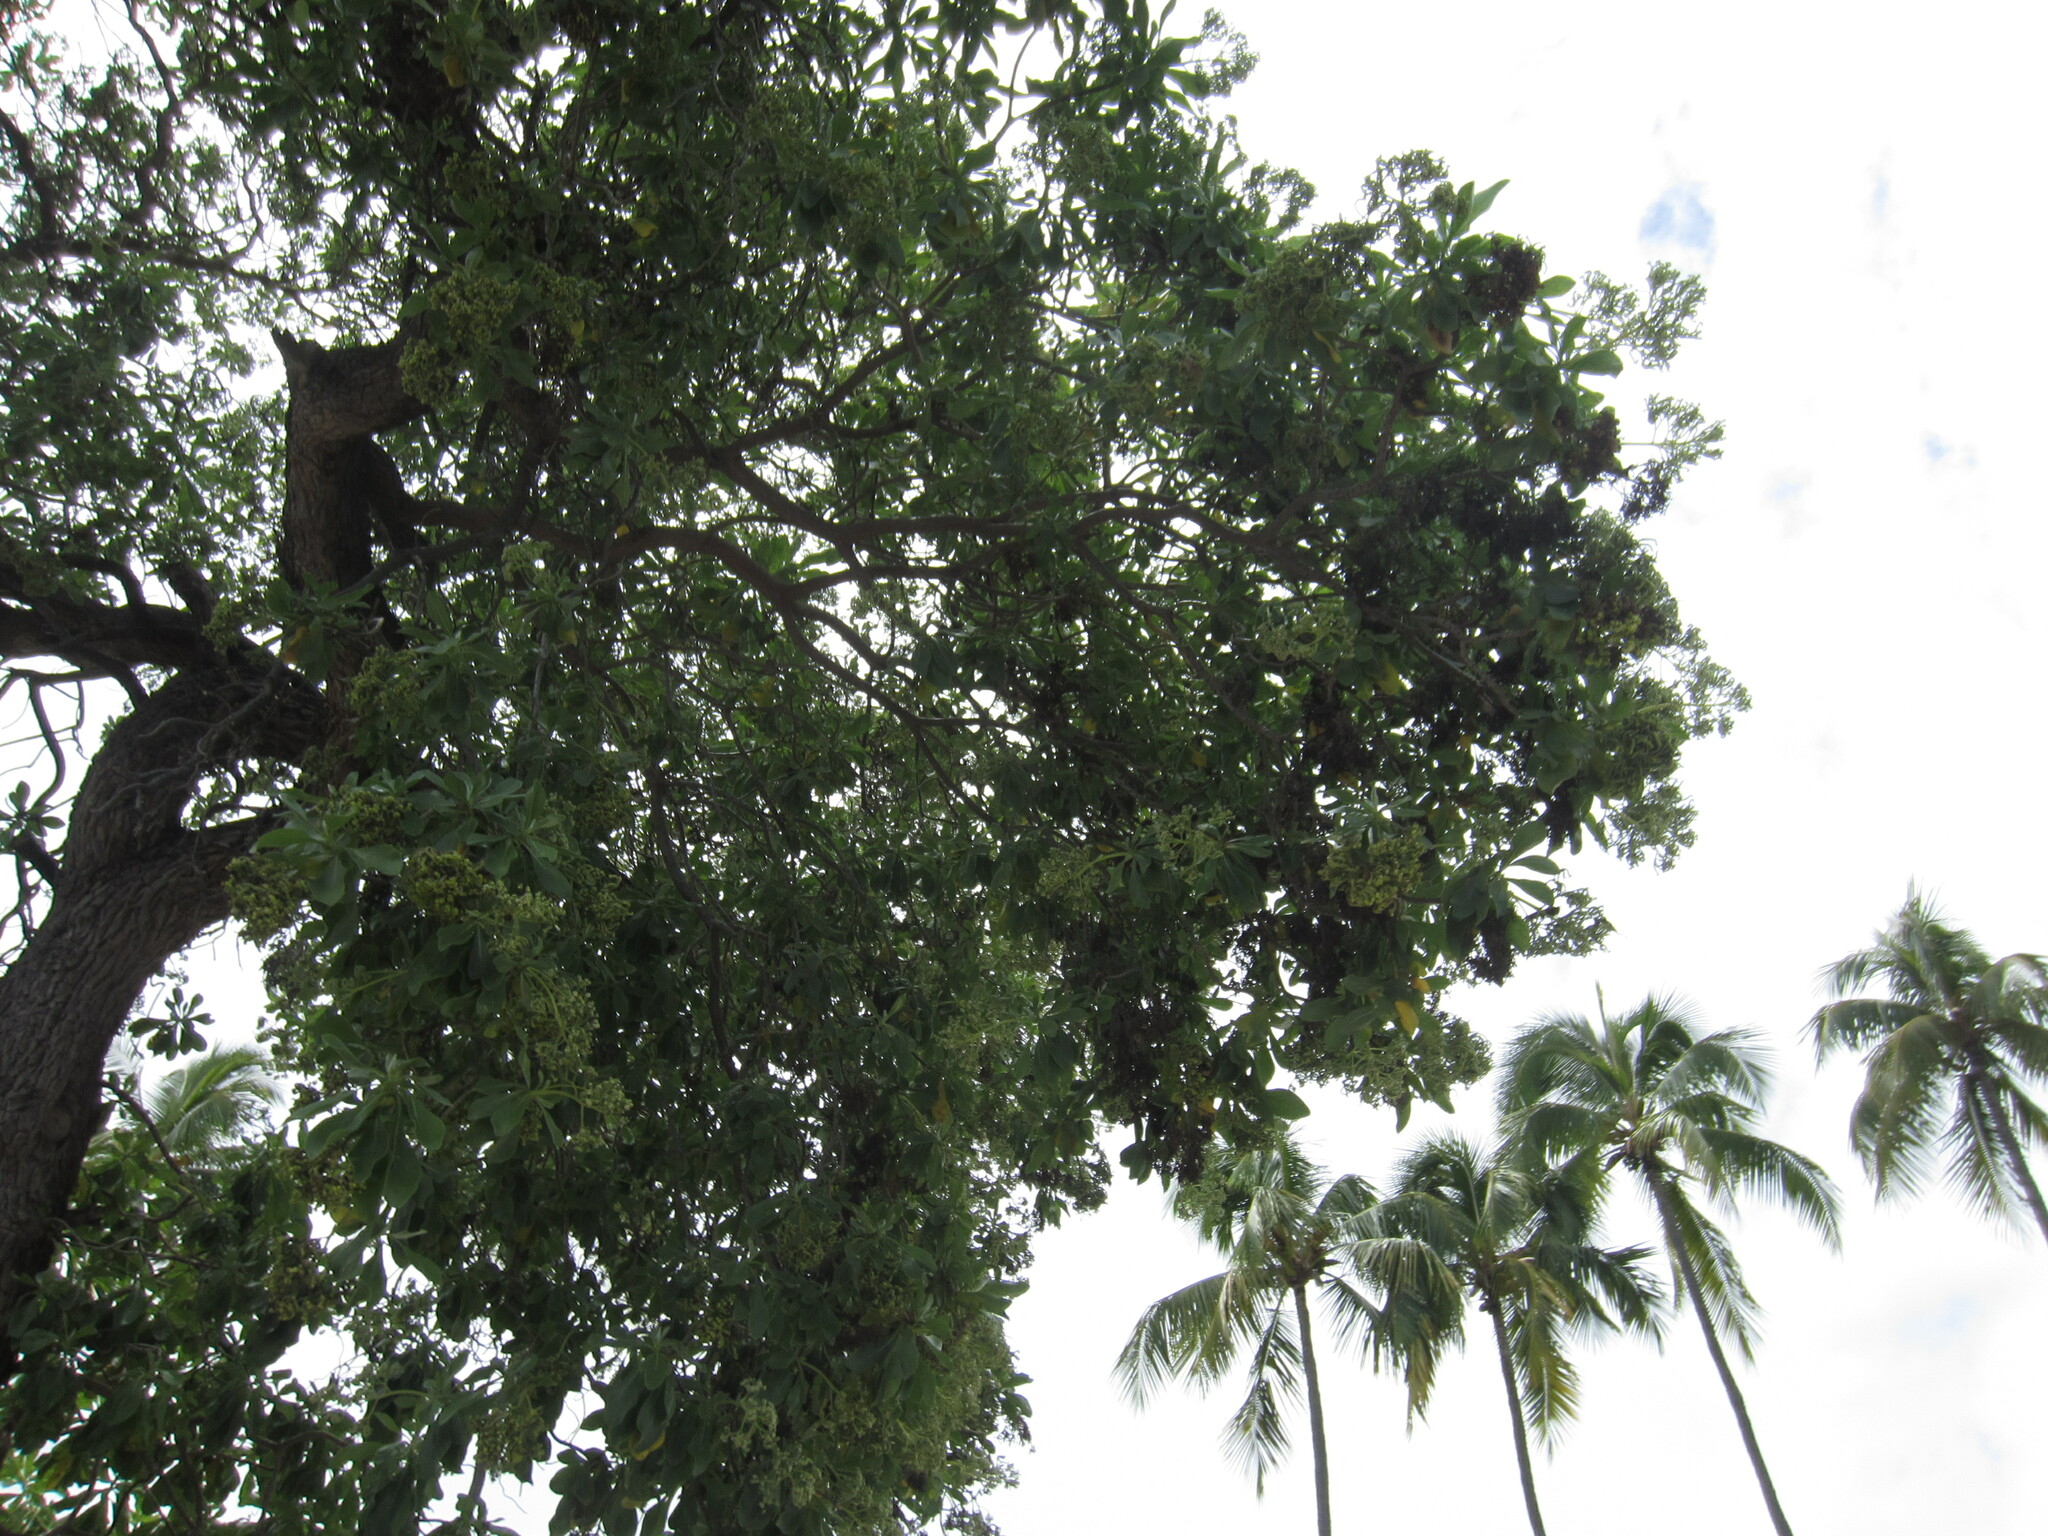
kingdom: Plantae
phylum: Tracheophyta
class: Magnoliopsida
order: Boraginales
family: Heliotropiaceae
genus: Heliotropium
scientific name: Heliotropium velutinum
